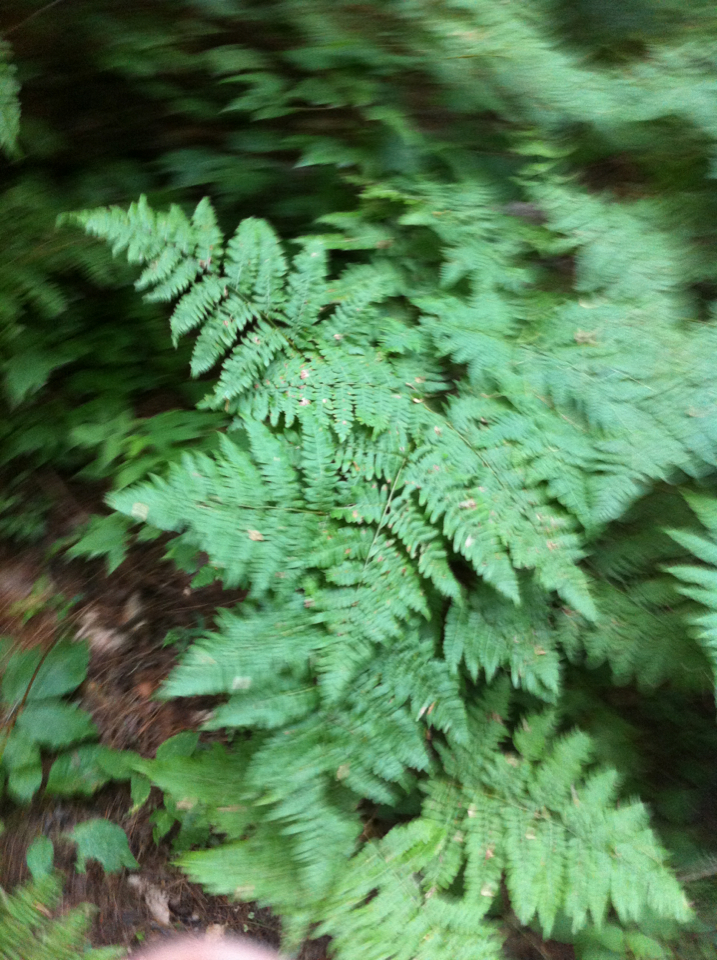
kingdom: Plantae
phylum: Tracheophyta
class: Polypodiopsida
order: Polypodiales
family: Dennstaedtiaceae
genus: Pteridium
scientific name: Pteridium aquilinum
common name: Bracken
